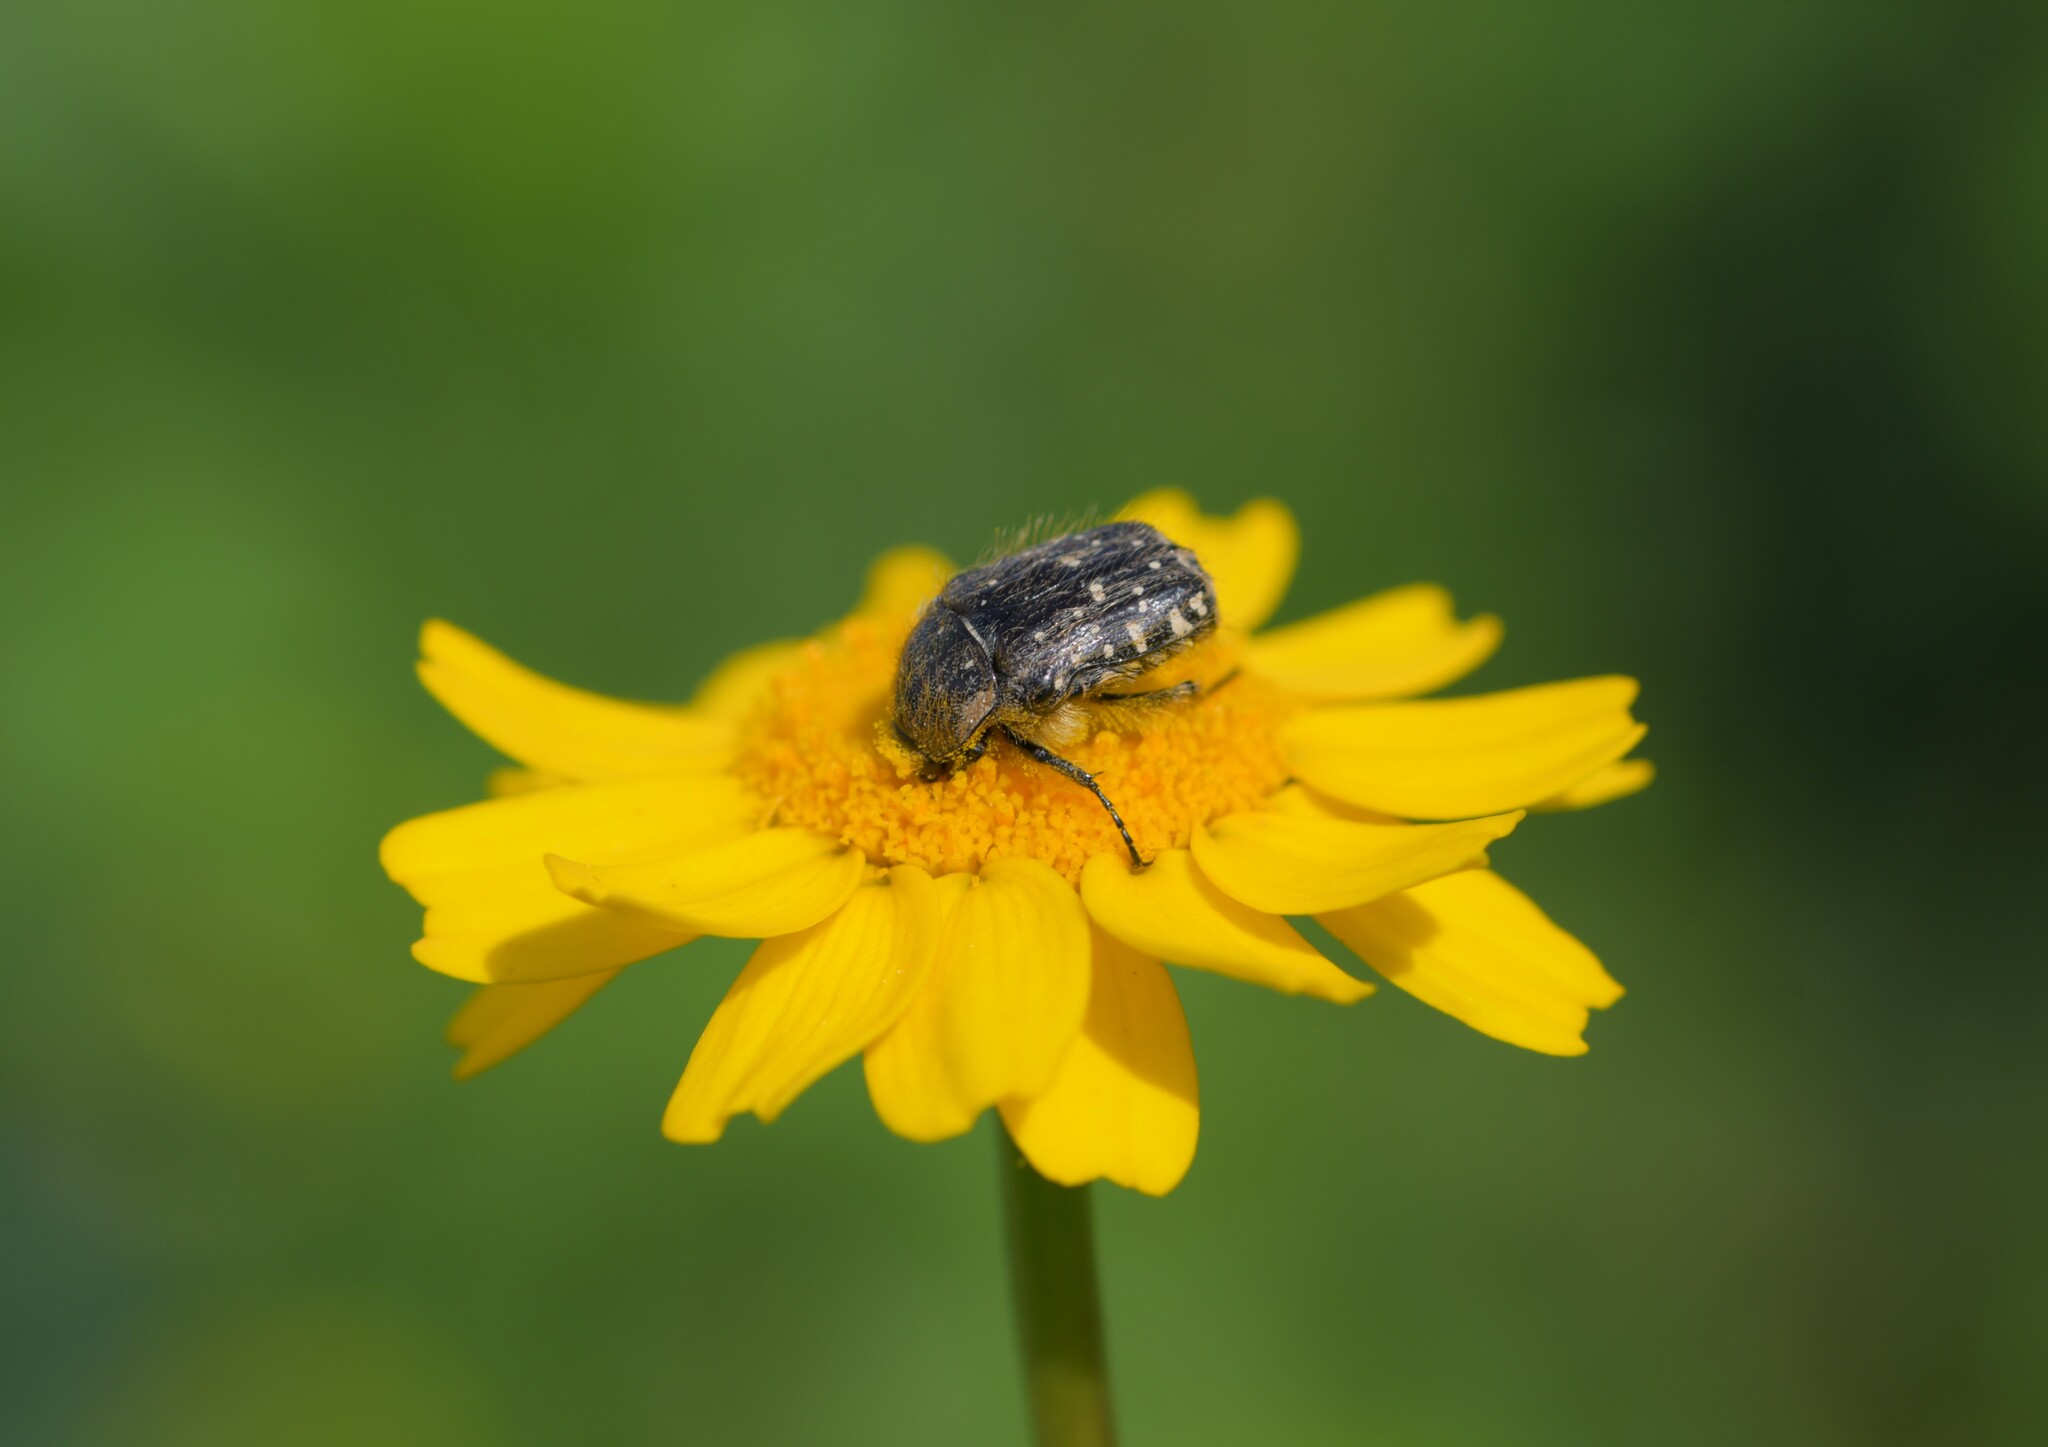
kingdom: Animalia
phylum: Arthropoda
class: Insecta
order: Coleoptera
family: Scarabaeidae
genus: Oxythyrea
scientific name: Oxythyrea funesta
